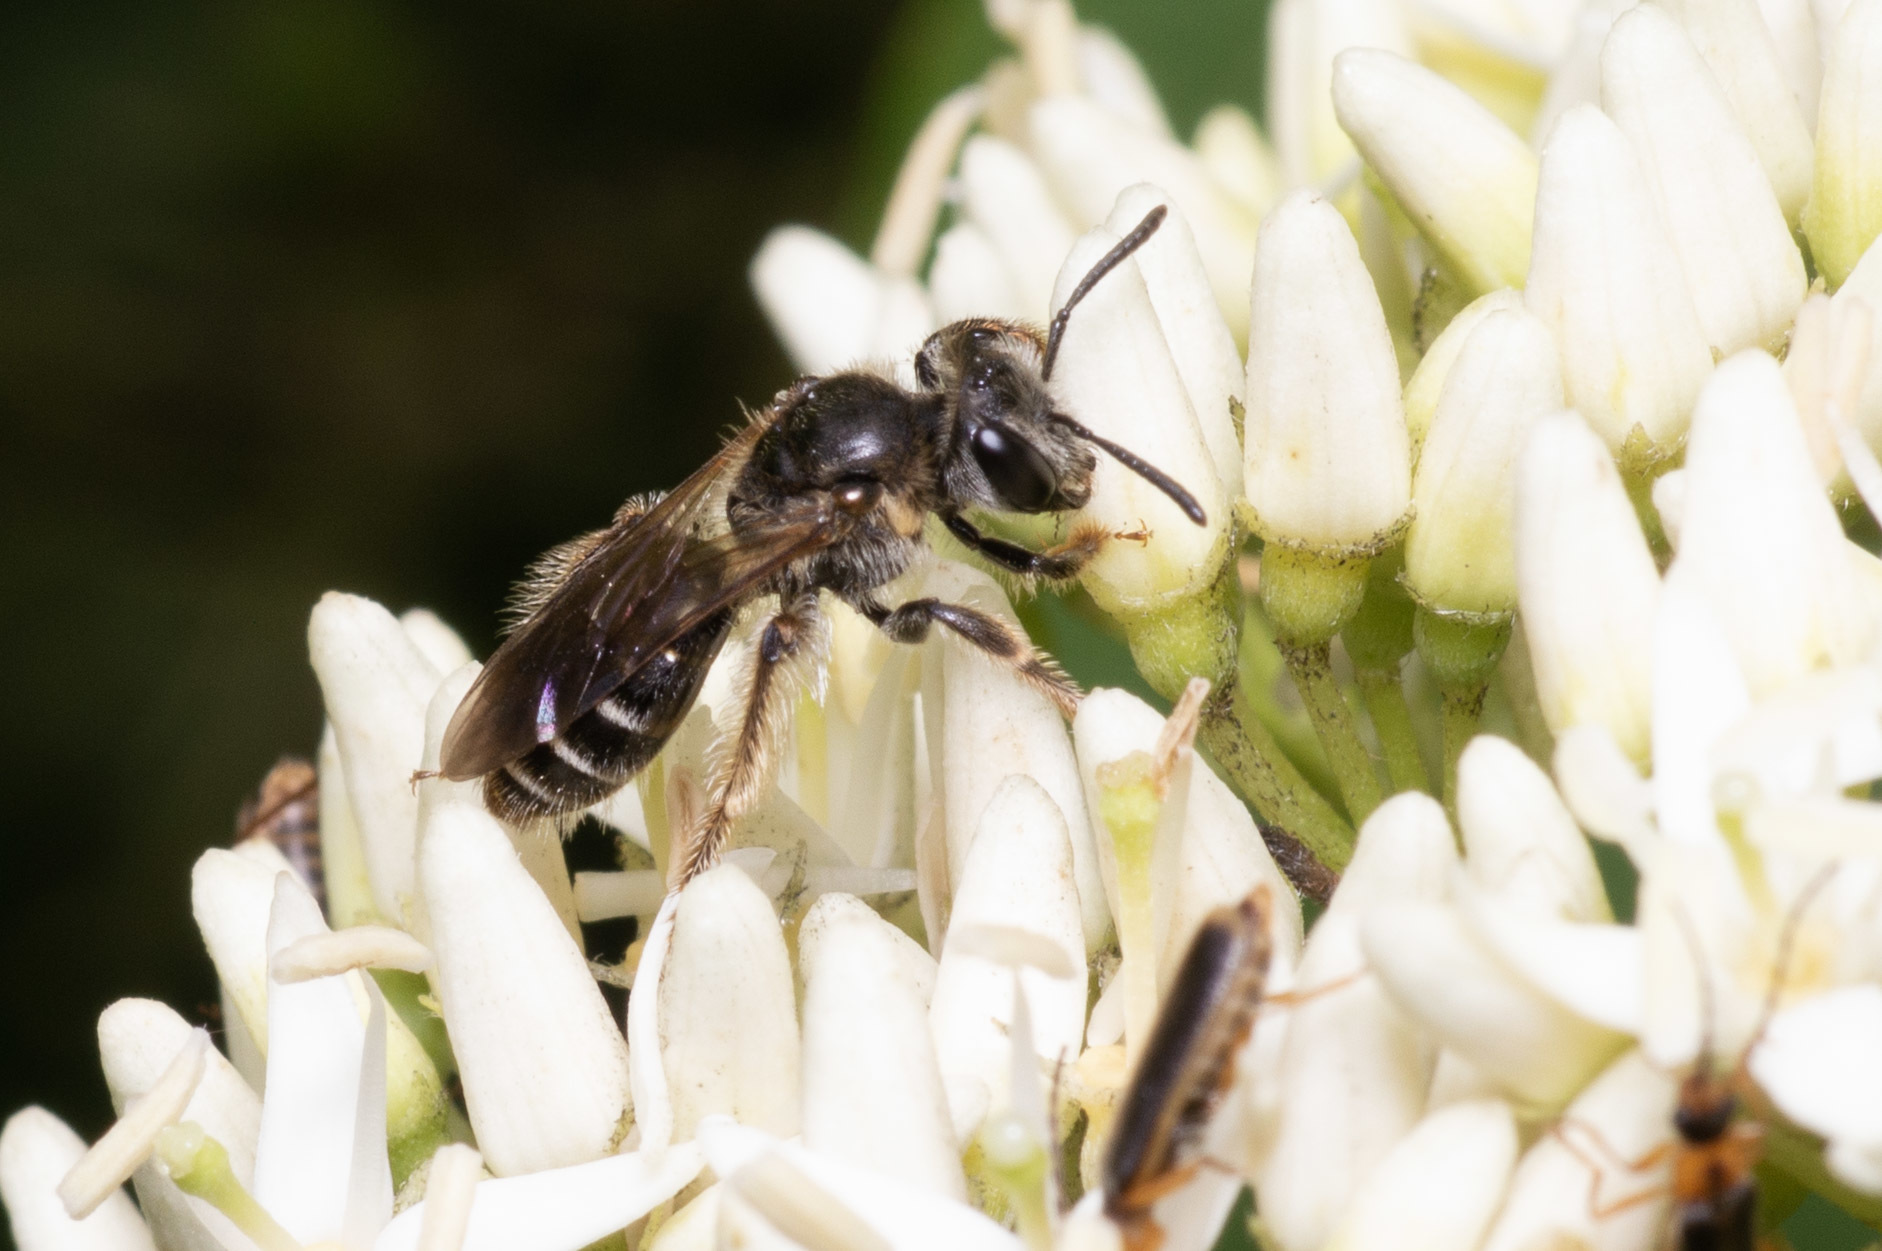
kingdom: Animalia
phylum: Arthropoda
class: Insecta
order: Hymenoptera
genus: Gonandrena
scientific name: Gonandrena
